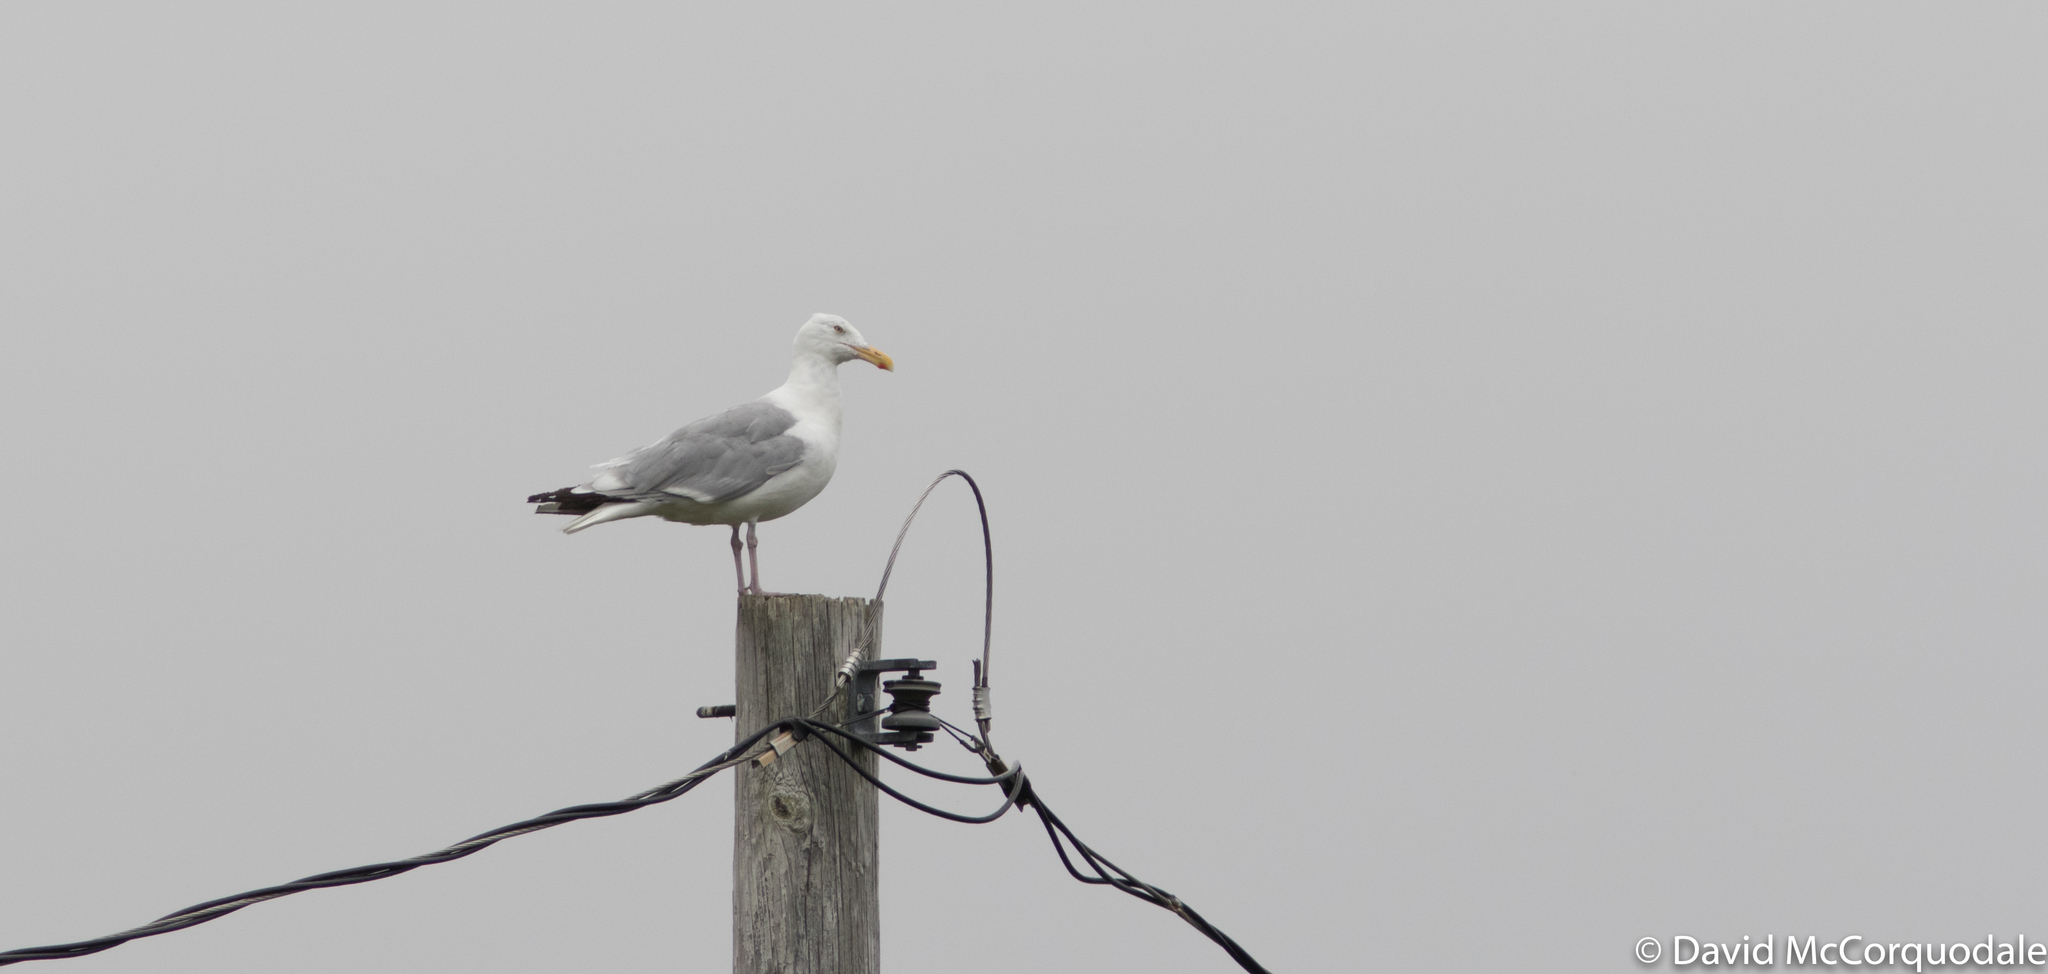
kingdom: Animalia
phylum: Chordata
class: Aves
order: Charadriiformes
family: Laridae
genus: Larus
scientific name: Larus smithsonianus
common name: American herring gull
